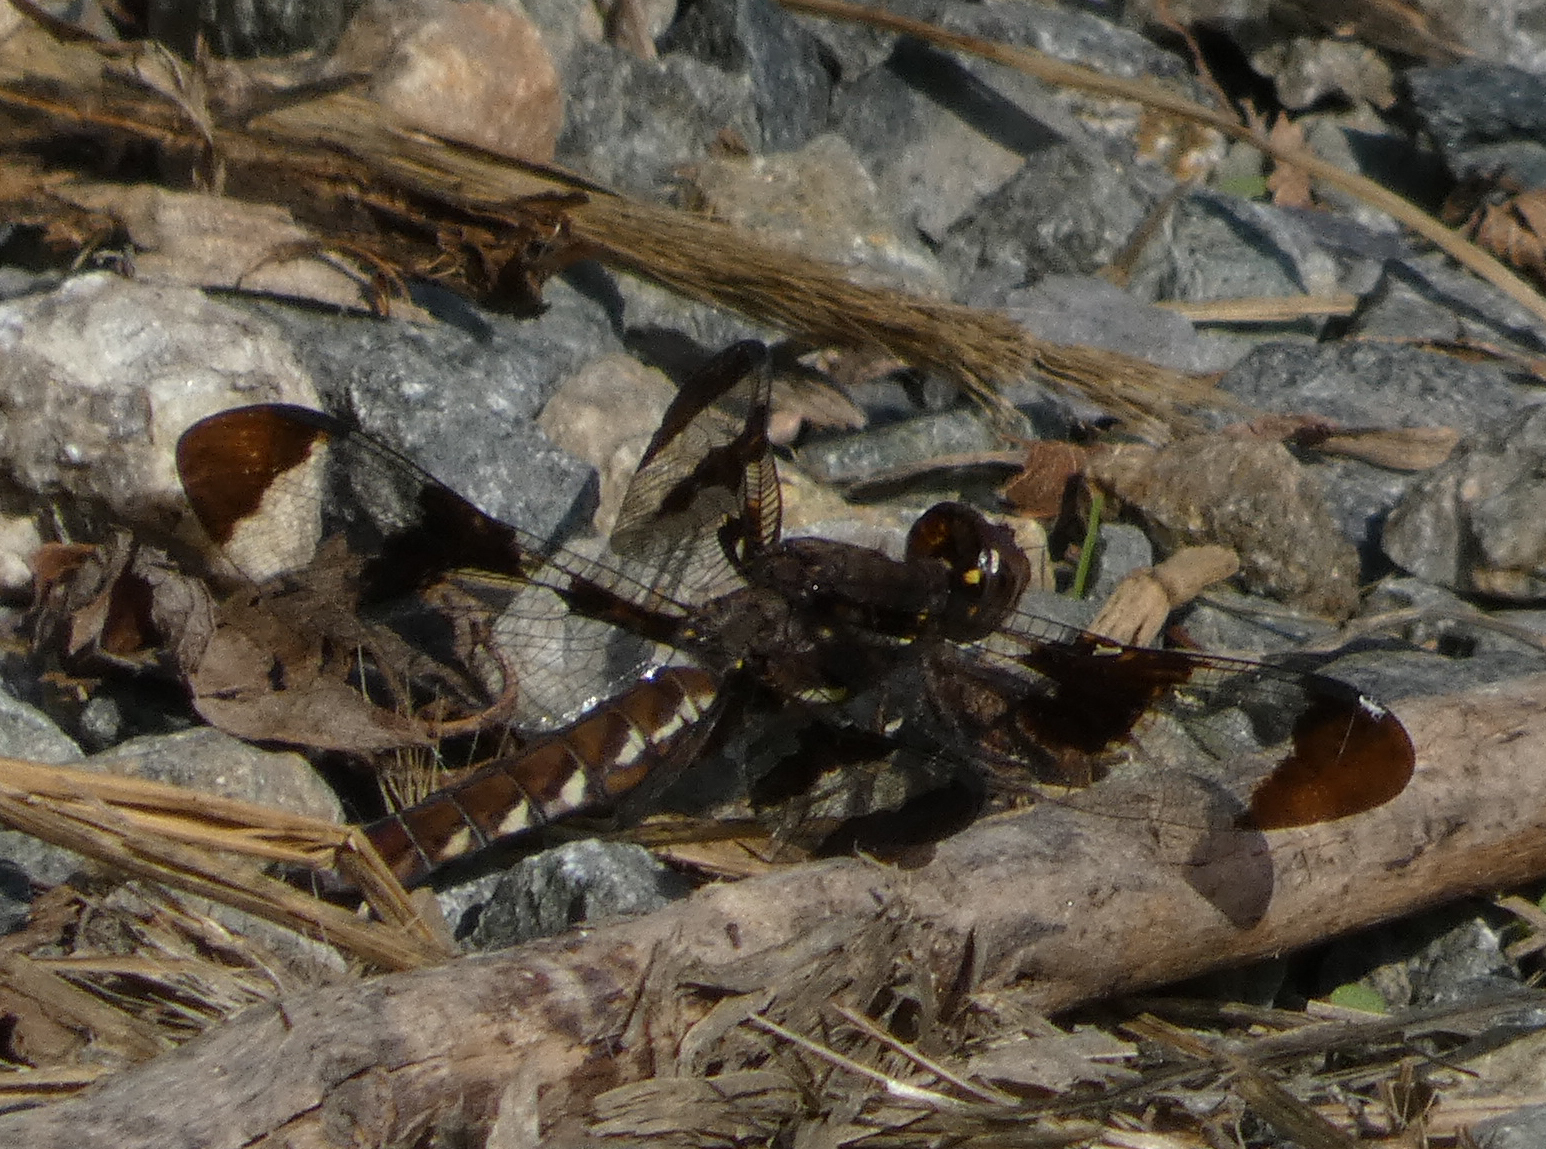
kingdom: Animalia
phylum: Arthropoda
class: Insecta
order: Odonata
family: Libellulidae
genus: Plathemis
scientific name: Plathemis lydia
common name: Common whitetail
